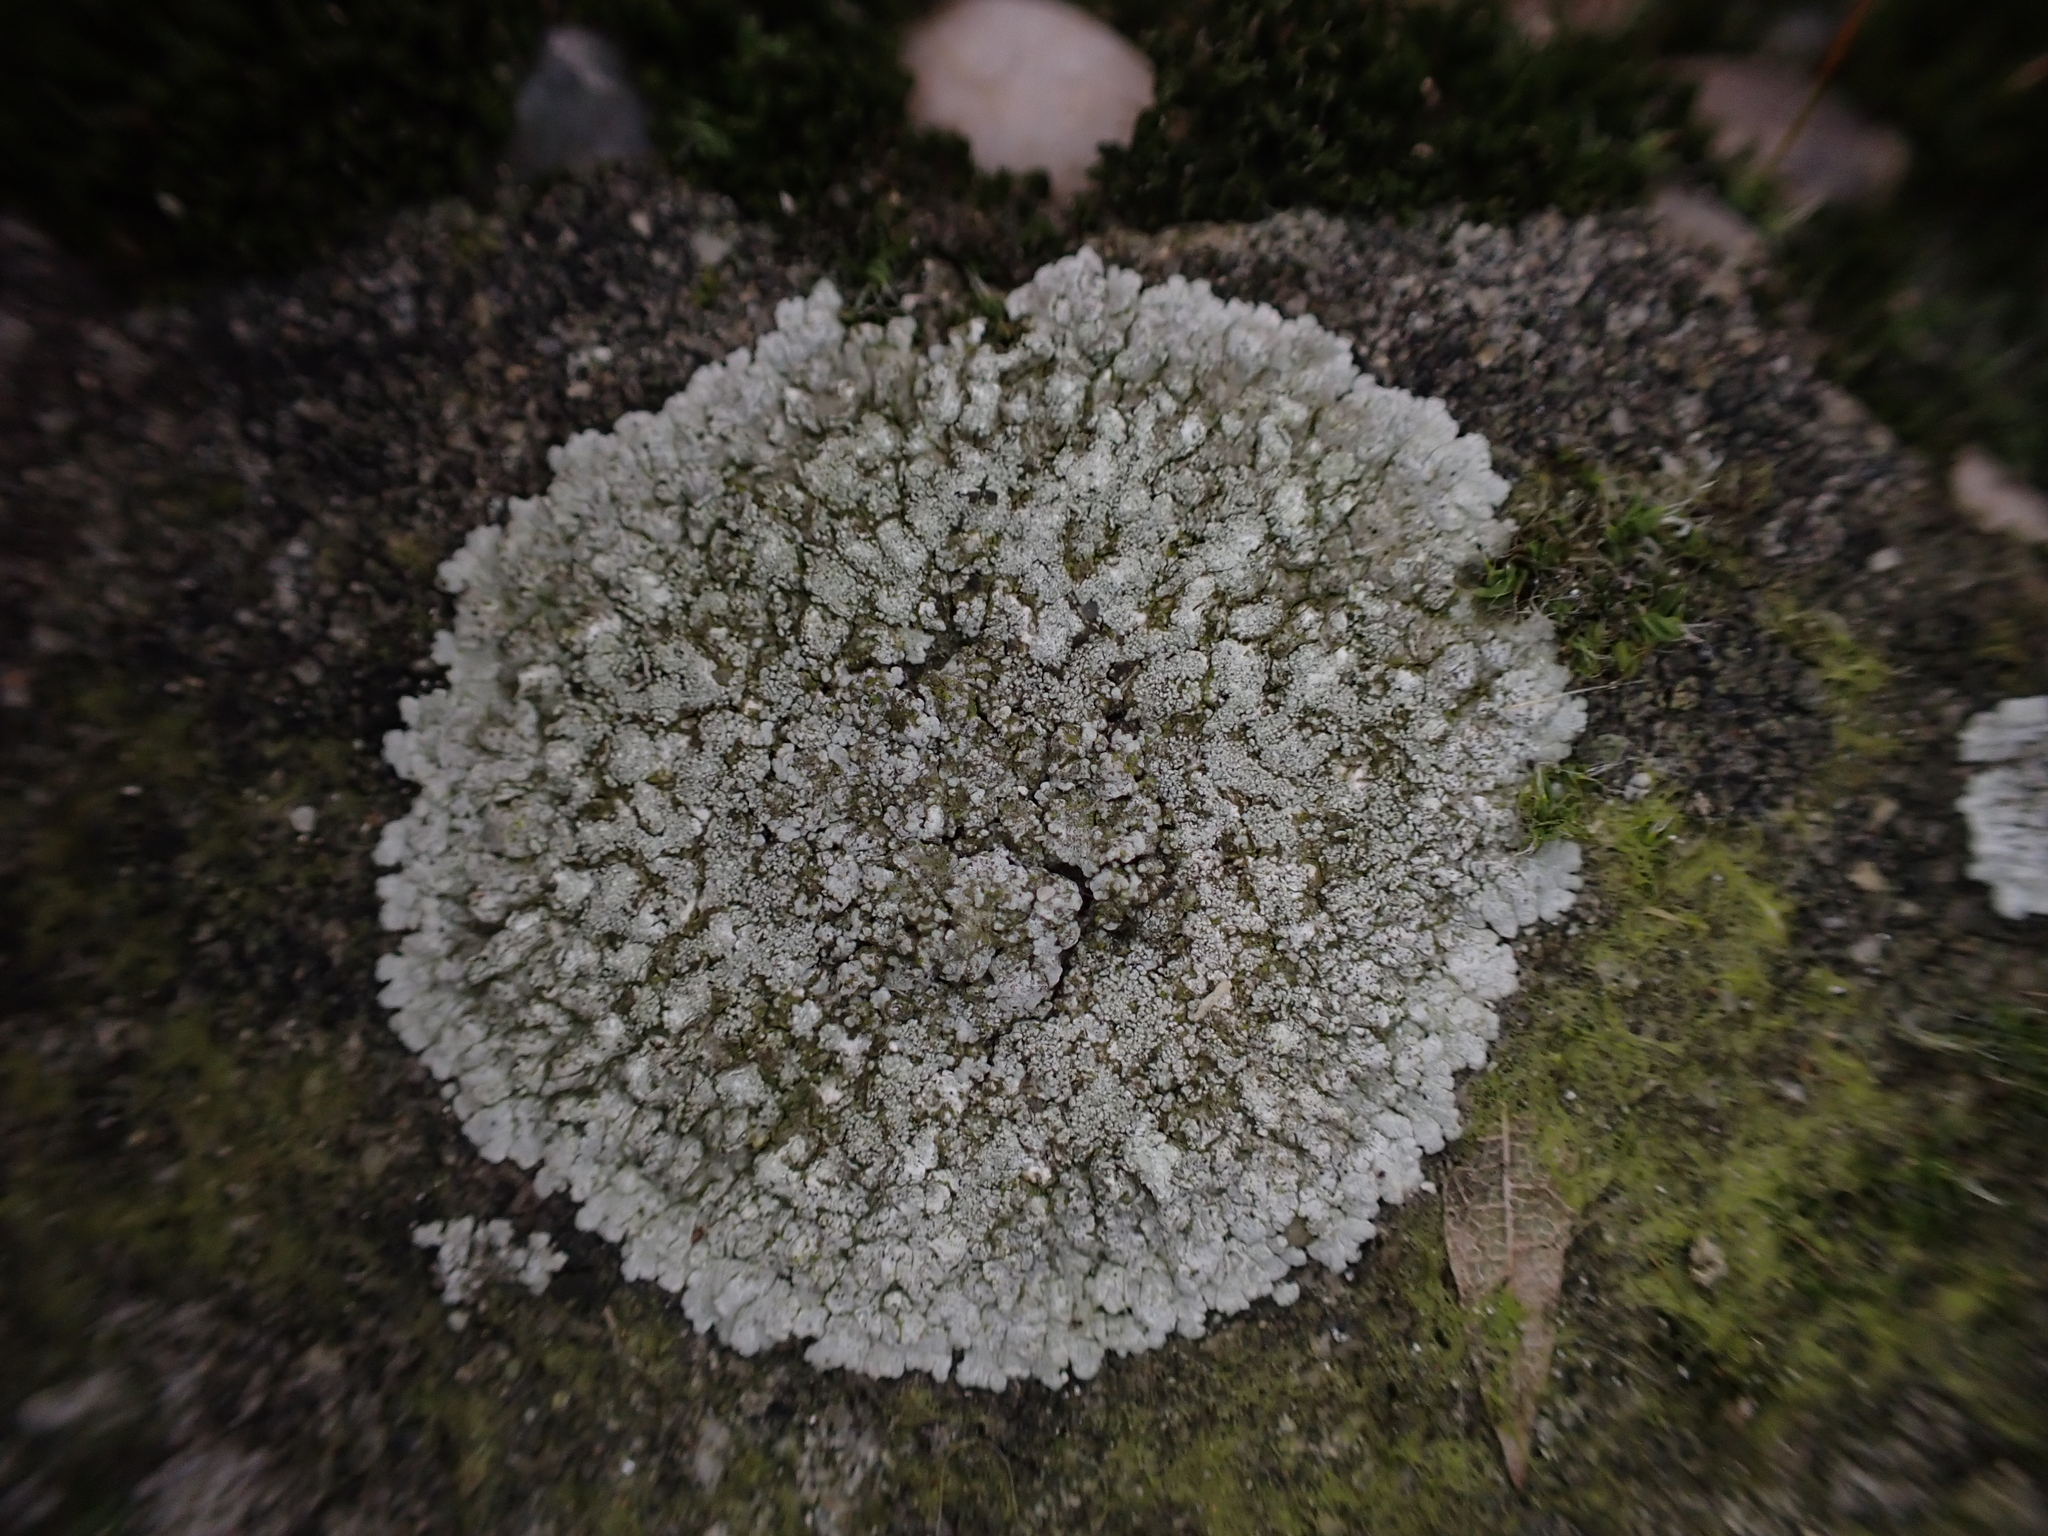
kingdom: Fungi
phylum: Ascomycota
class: Lecanoromycetes
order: Teloschistales
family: Teloschistaceae
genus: Kuettlingeria
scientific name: Kuettlingeria teicholyta
